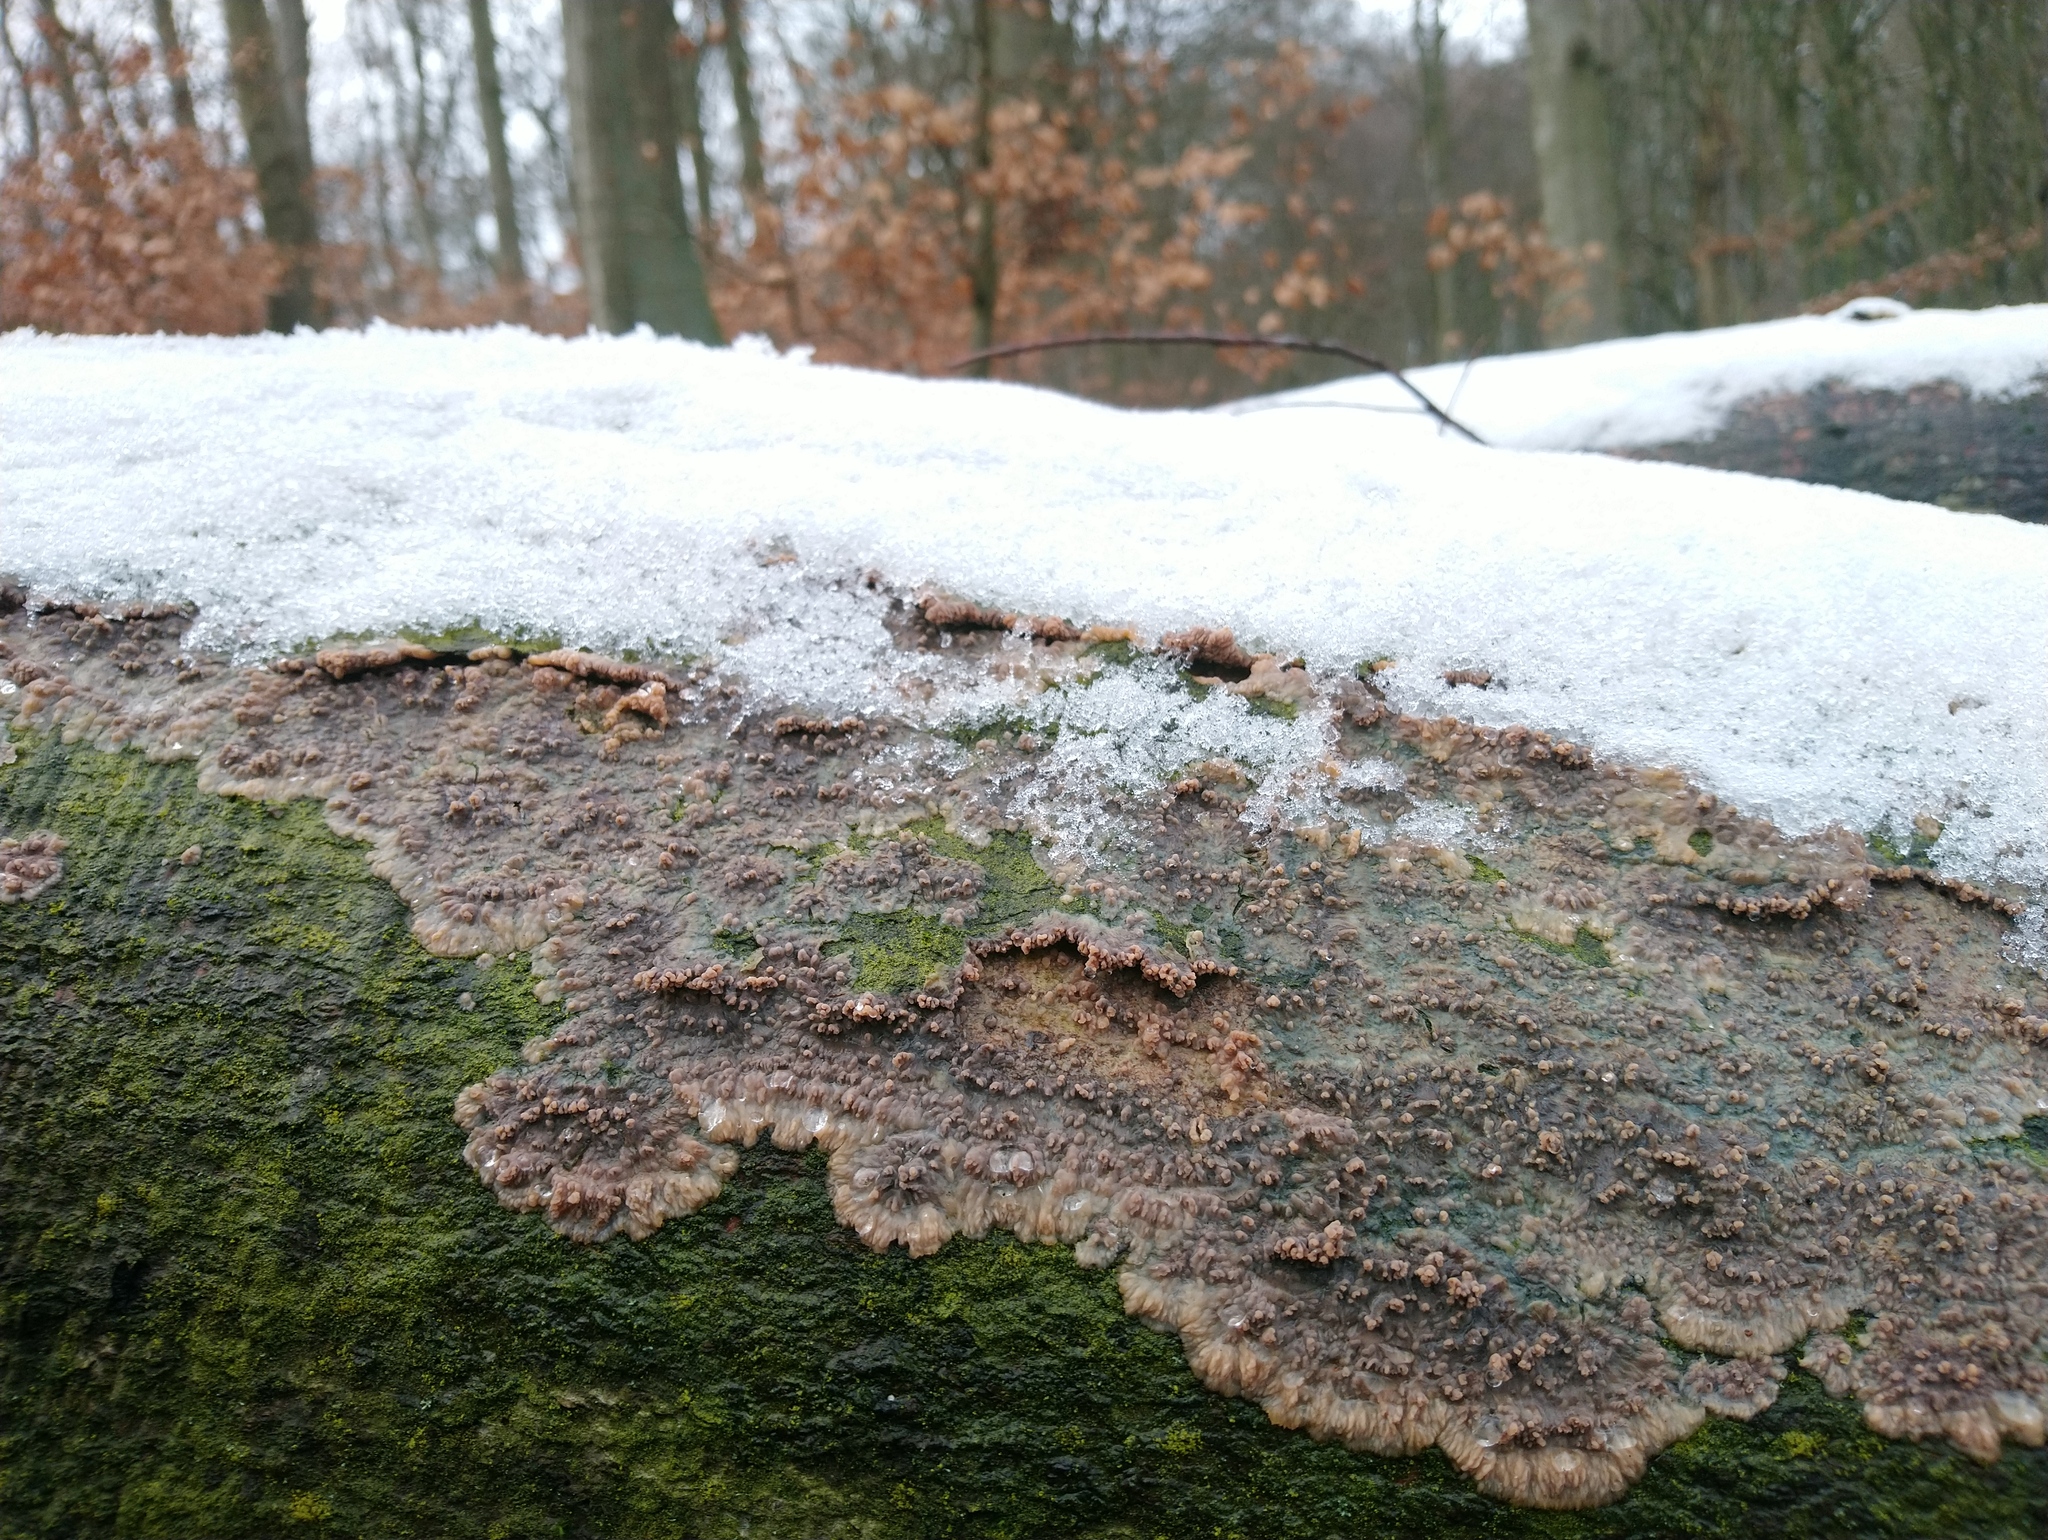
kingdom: Fungi
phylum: Basidiomycota
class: Agaricomycetes
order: Polyporales
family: Meruliaceae
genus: Phlebia
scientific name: Phlebia radiata
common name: Wrinkled crust
